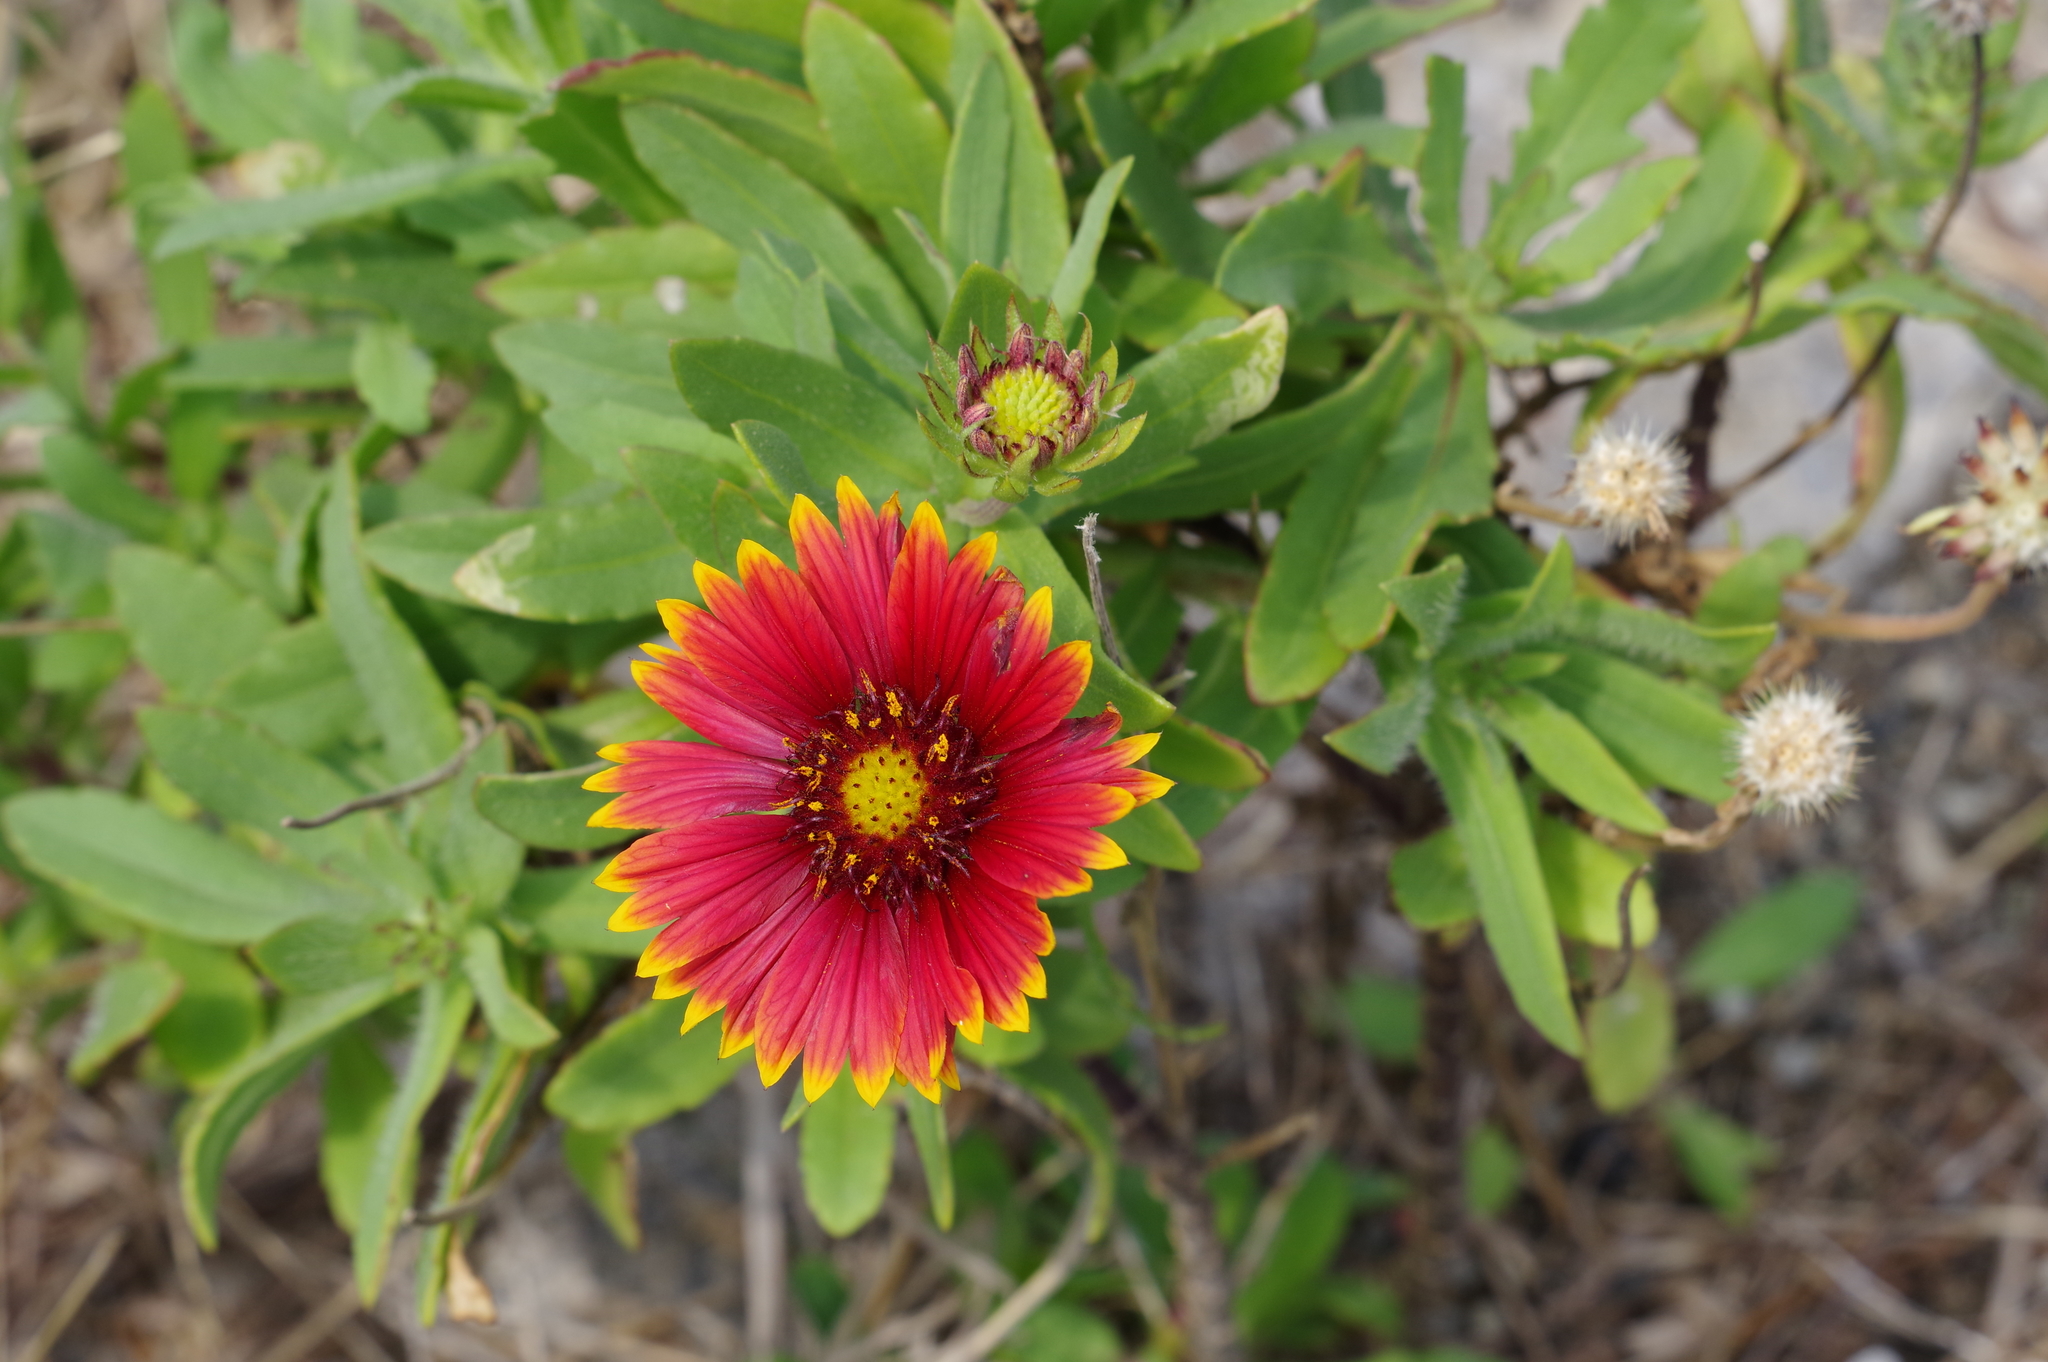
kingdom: Plantae
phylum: Tracheophyta
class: Magnoliopsida
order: Asterales
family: Asteraceae
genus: Gaillardia
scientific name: Gaillardia pulchella
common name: Firewheel
